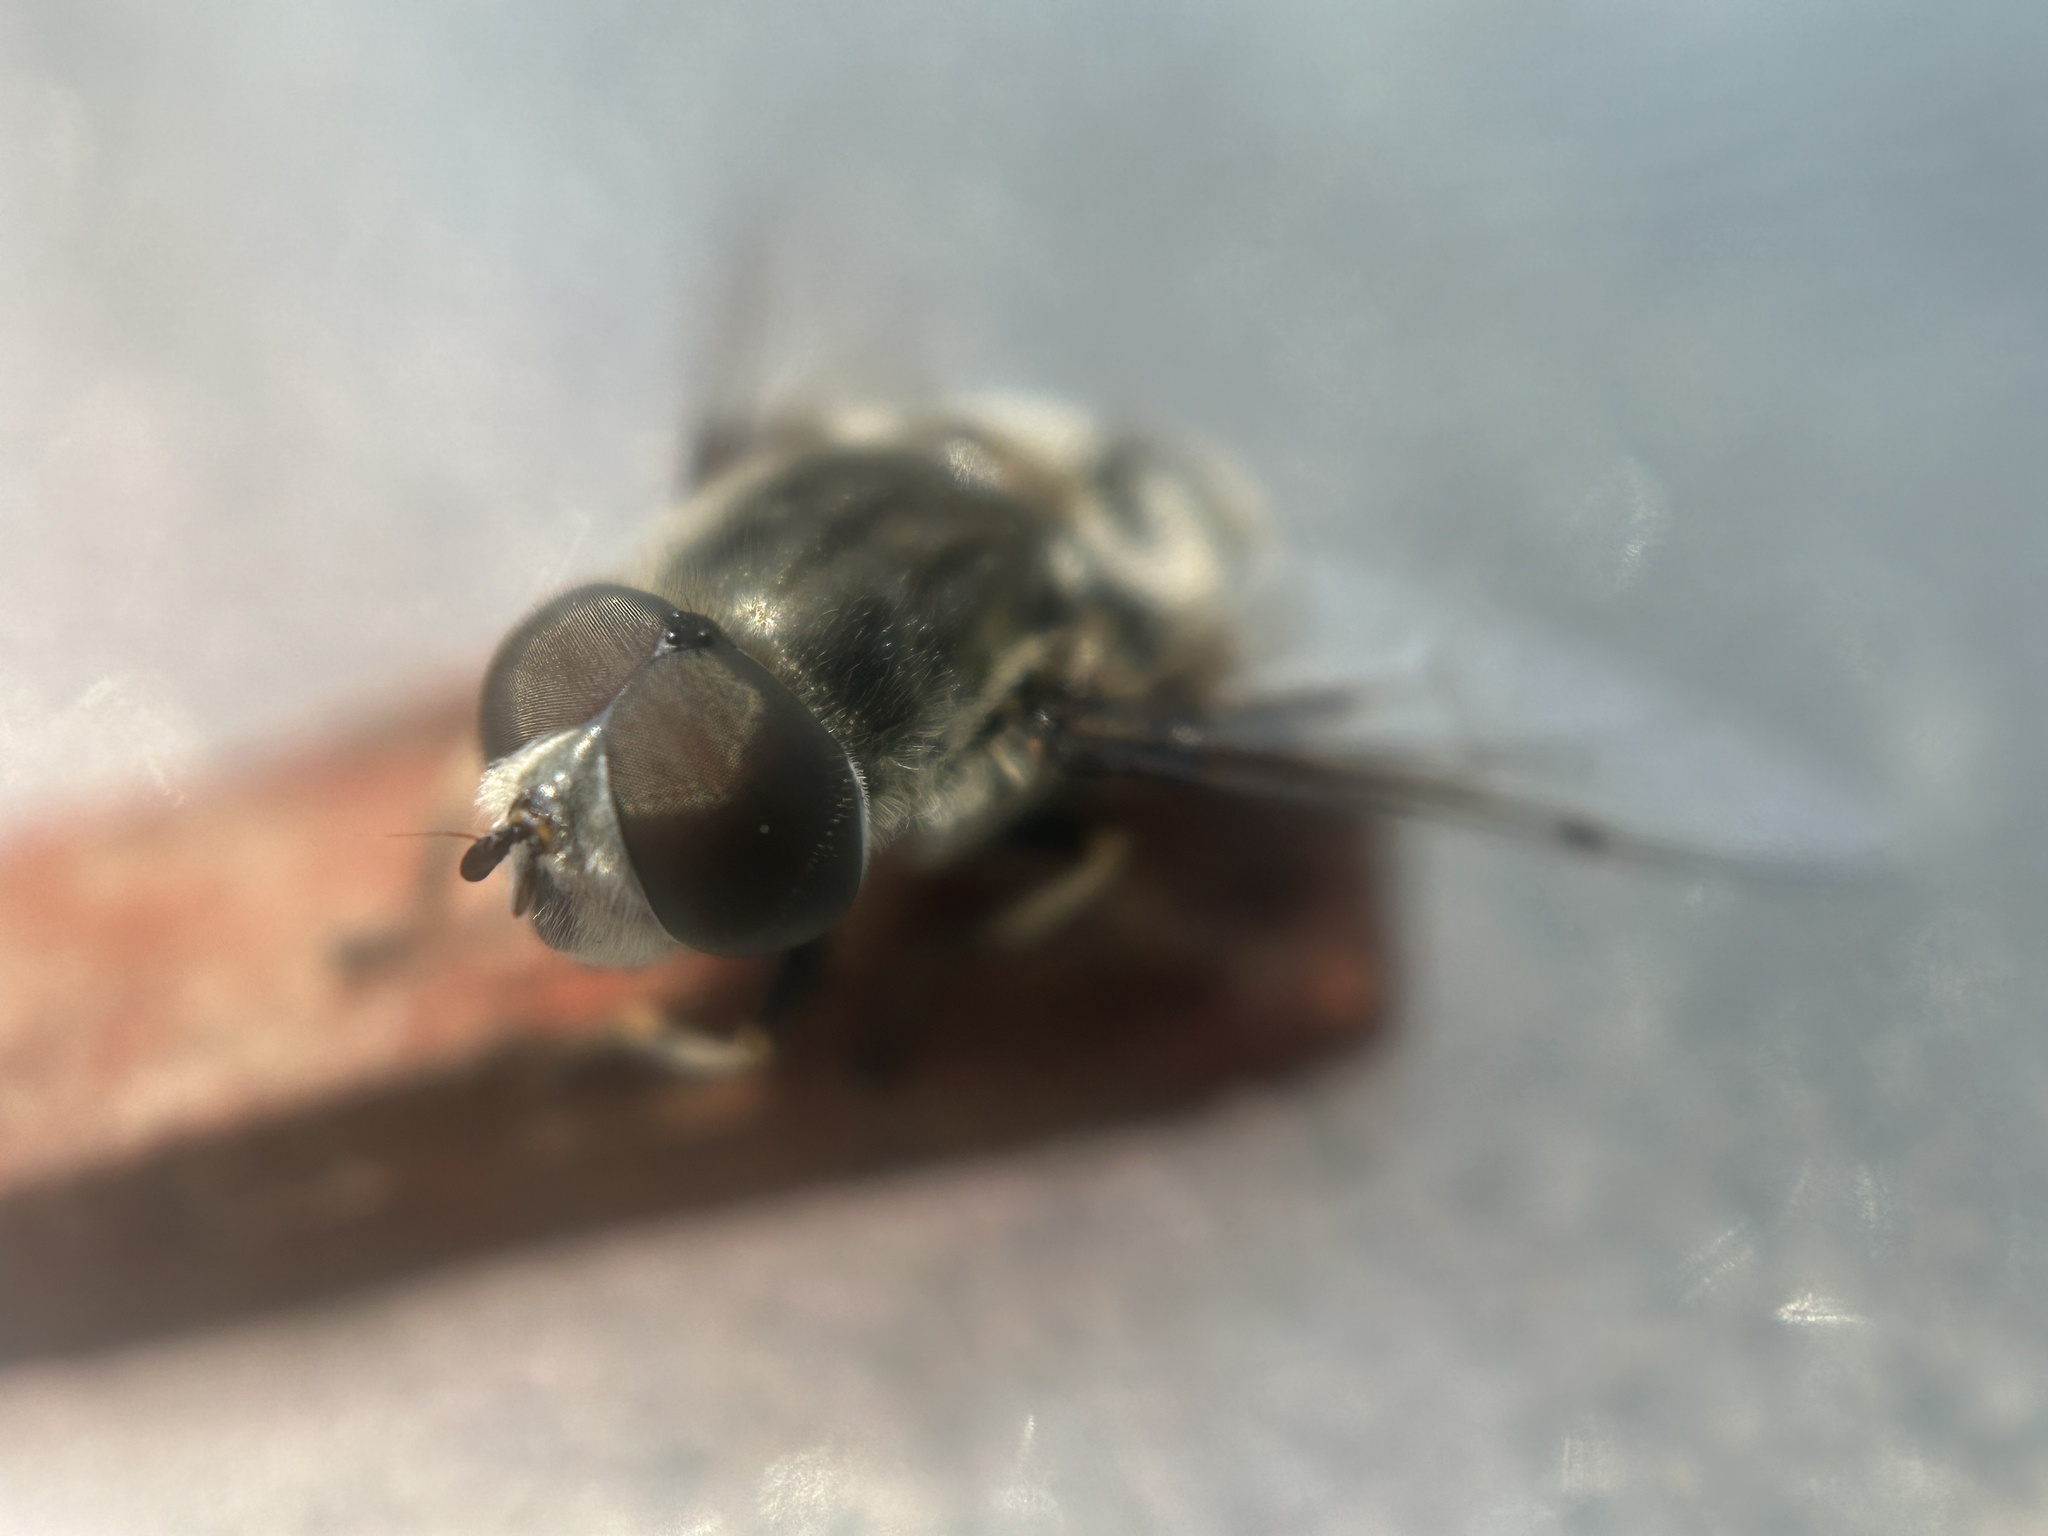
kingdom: Animalia
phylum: Arthropoda
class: Insecta
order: Diptera
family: Syrphidae
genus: Eristalis
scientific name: Eristalis dimidiata
